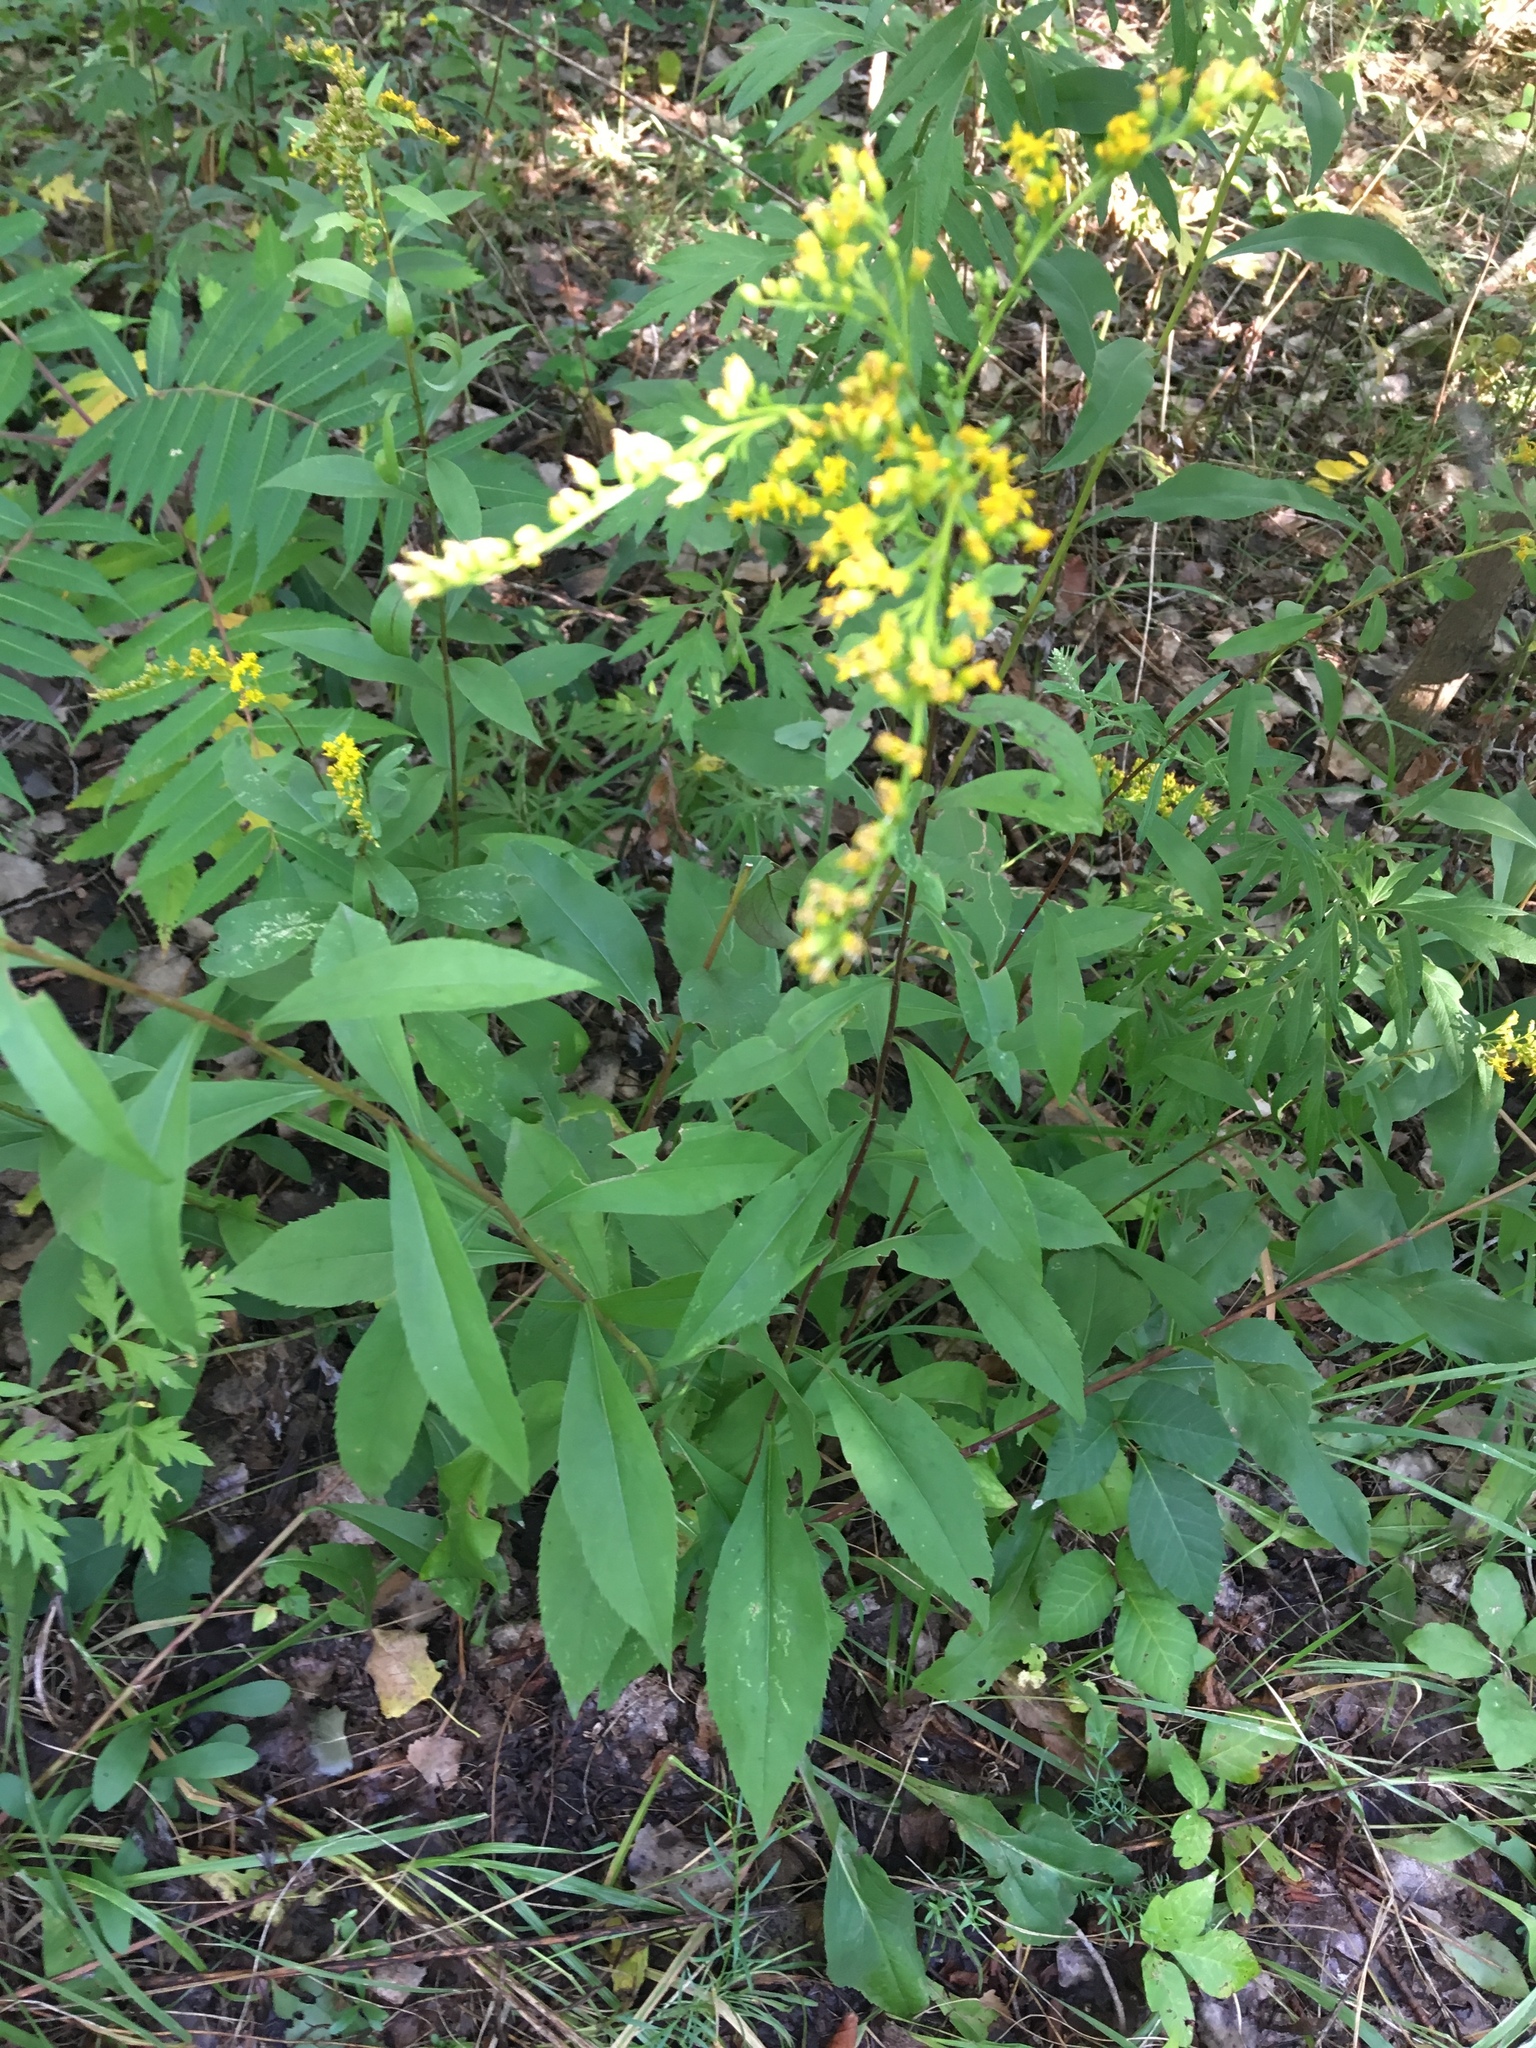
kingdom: Plantae
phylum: Tracheophyta
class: Magnoliopsida
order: Asterales
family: Asteraceae
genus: Solidago
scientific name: Solidago juncea
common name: Early goldenrod
